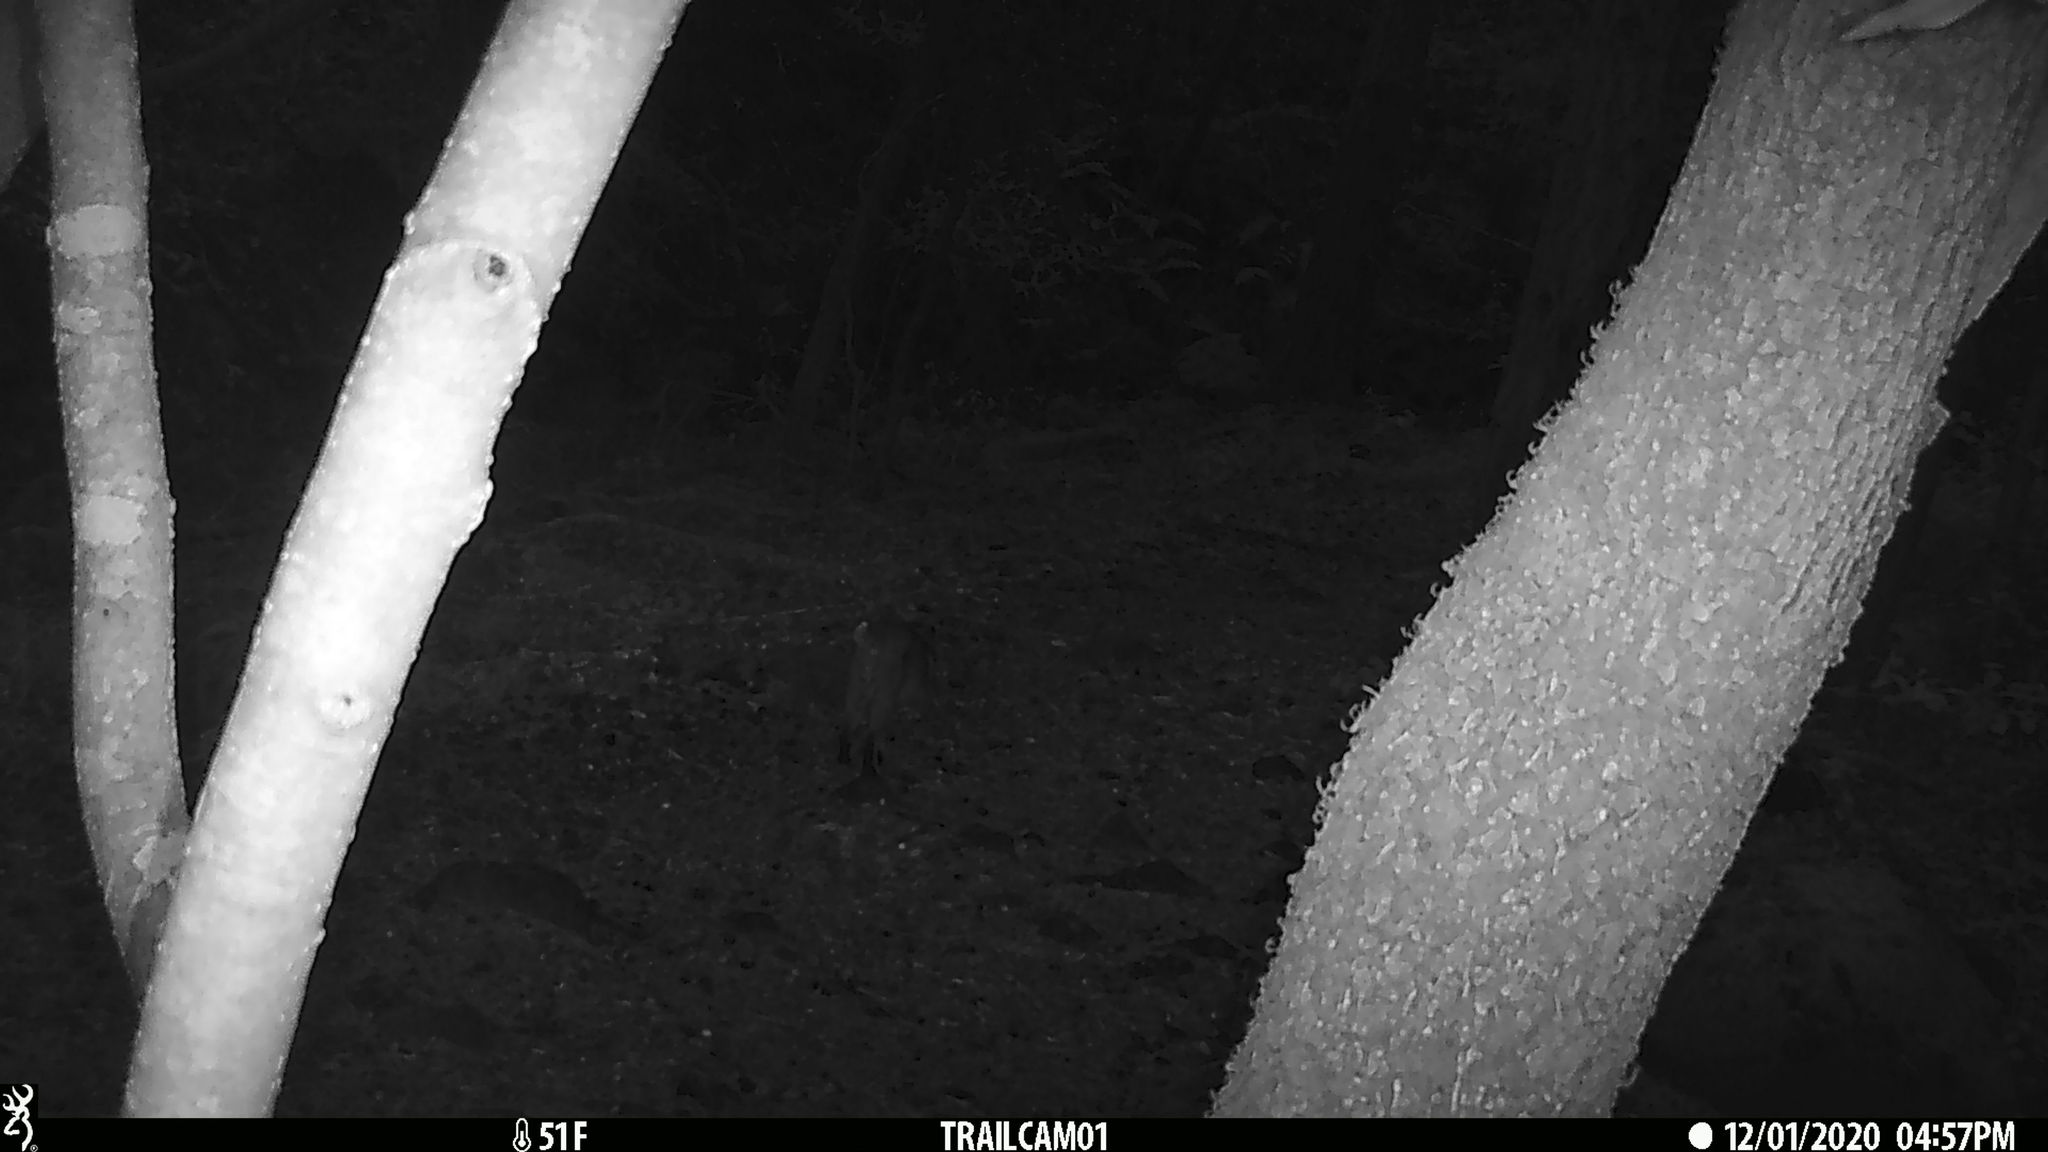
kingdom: Animalia
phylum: Chordata
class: Mammalia
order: Carnivora
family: Felidae
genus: Lynx
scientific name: Lynx rufus
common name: Bobcat
